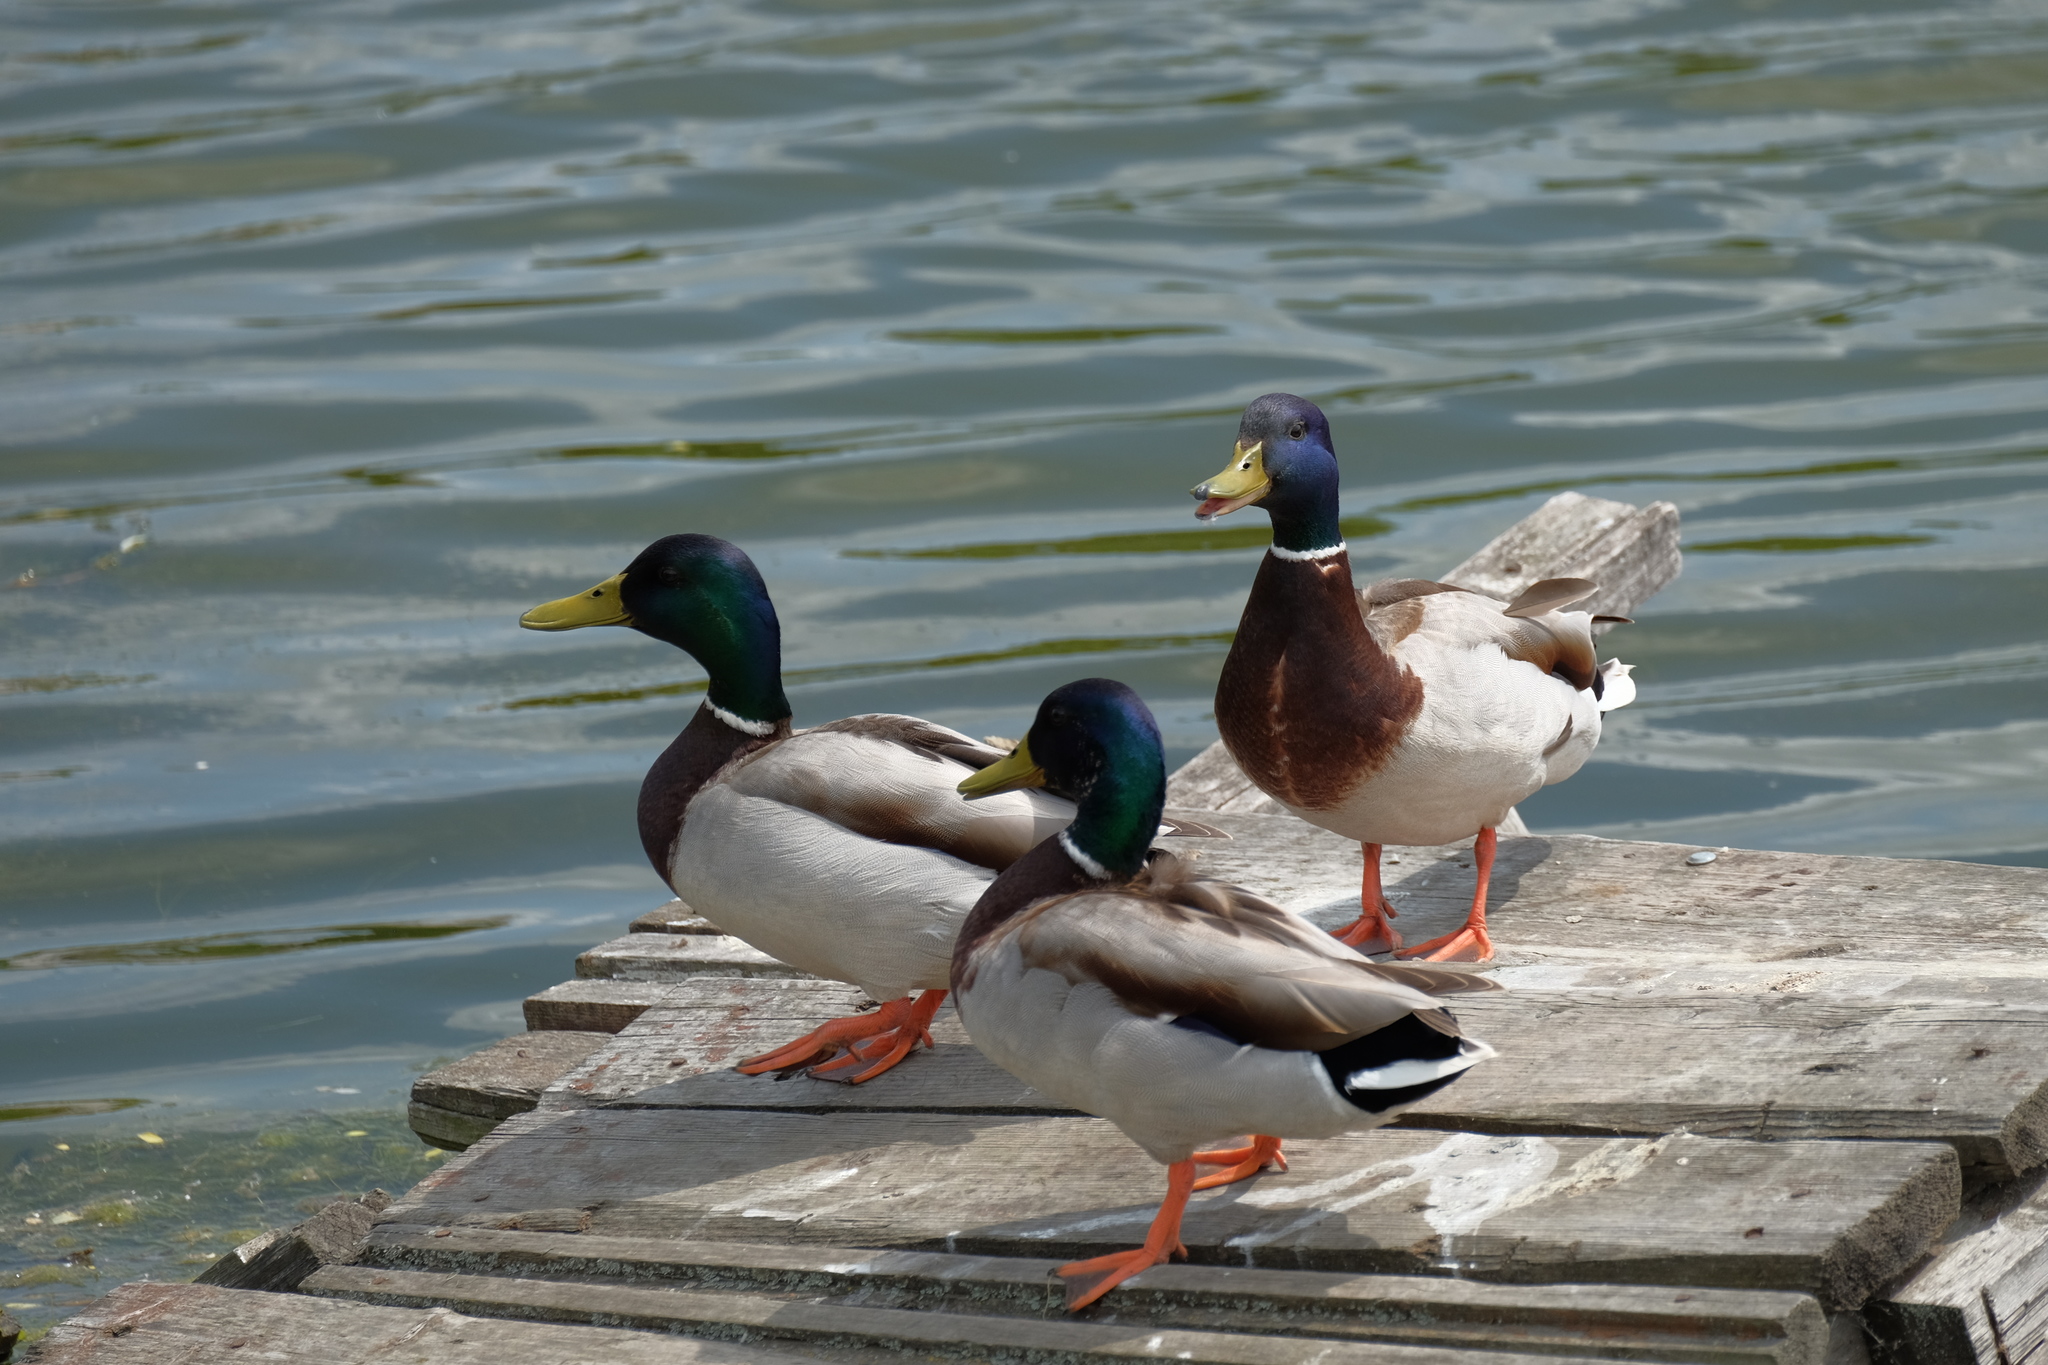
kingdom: Animalia
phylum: Chordata
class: Aves
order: Anseriformes
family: Anatidae
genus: Anas
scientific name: Anas platyrhynchos
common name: Mallard
